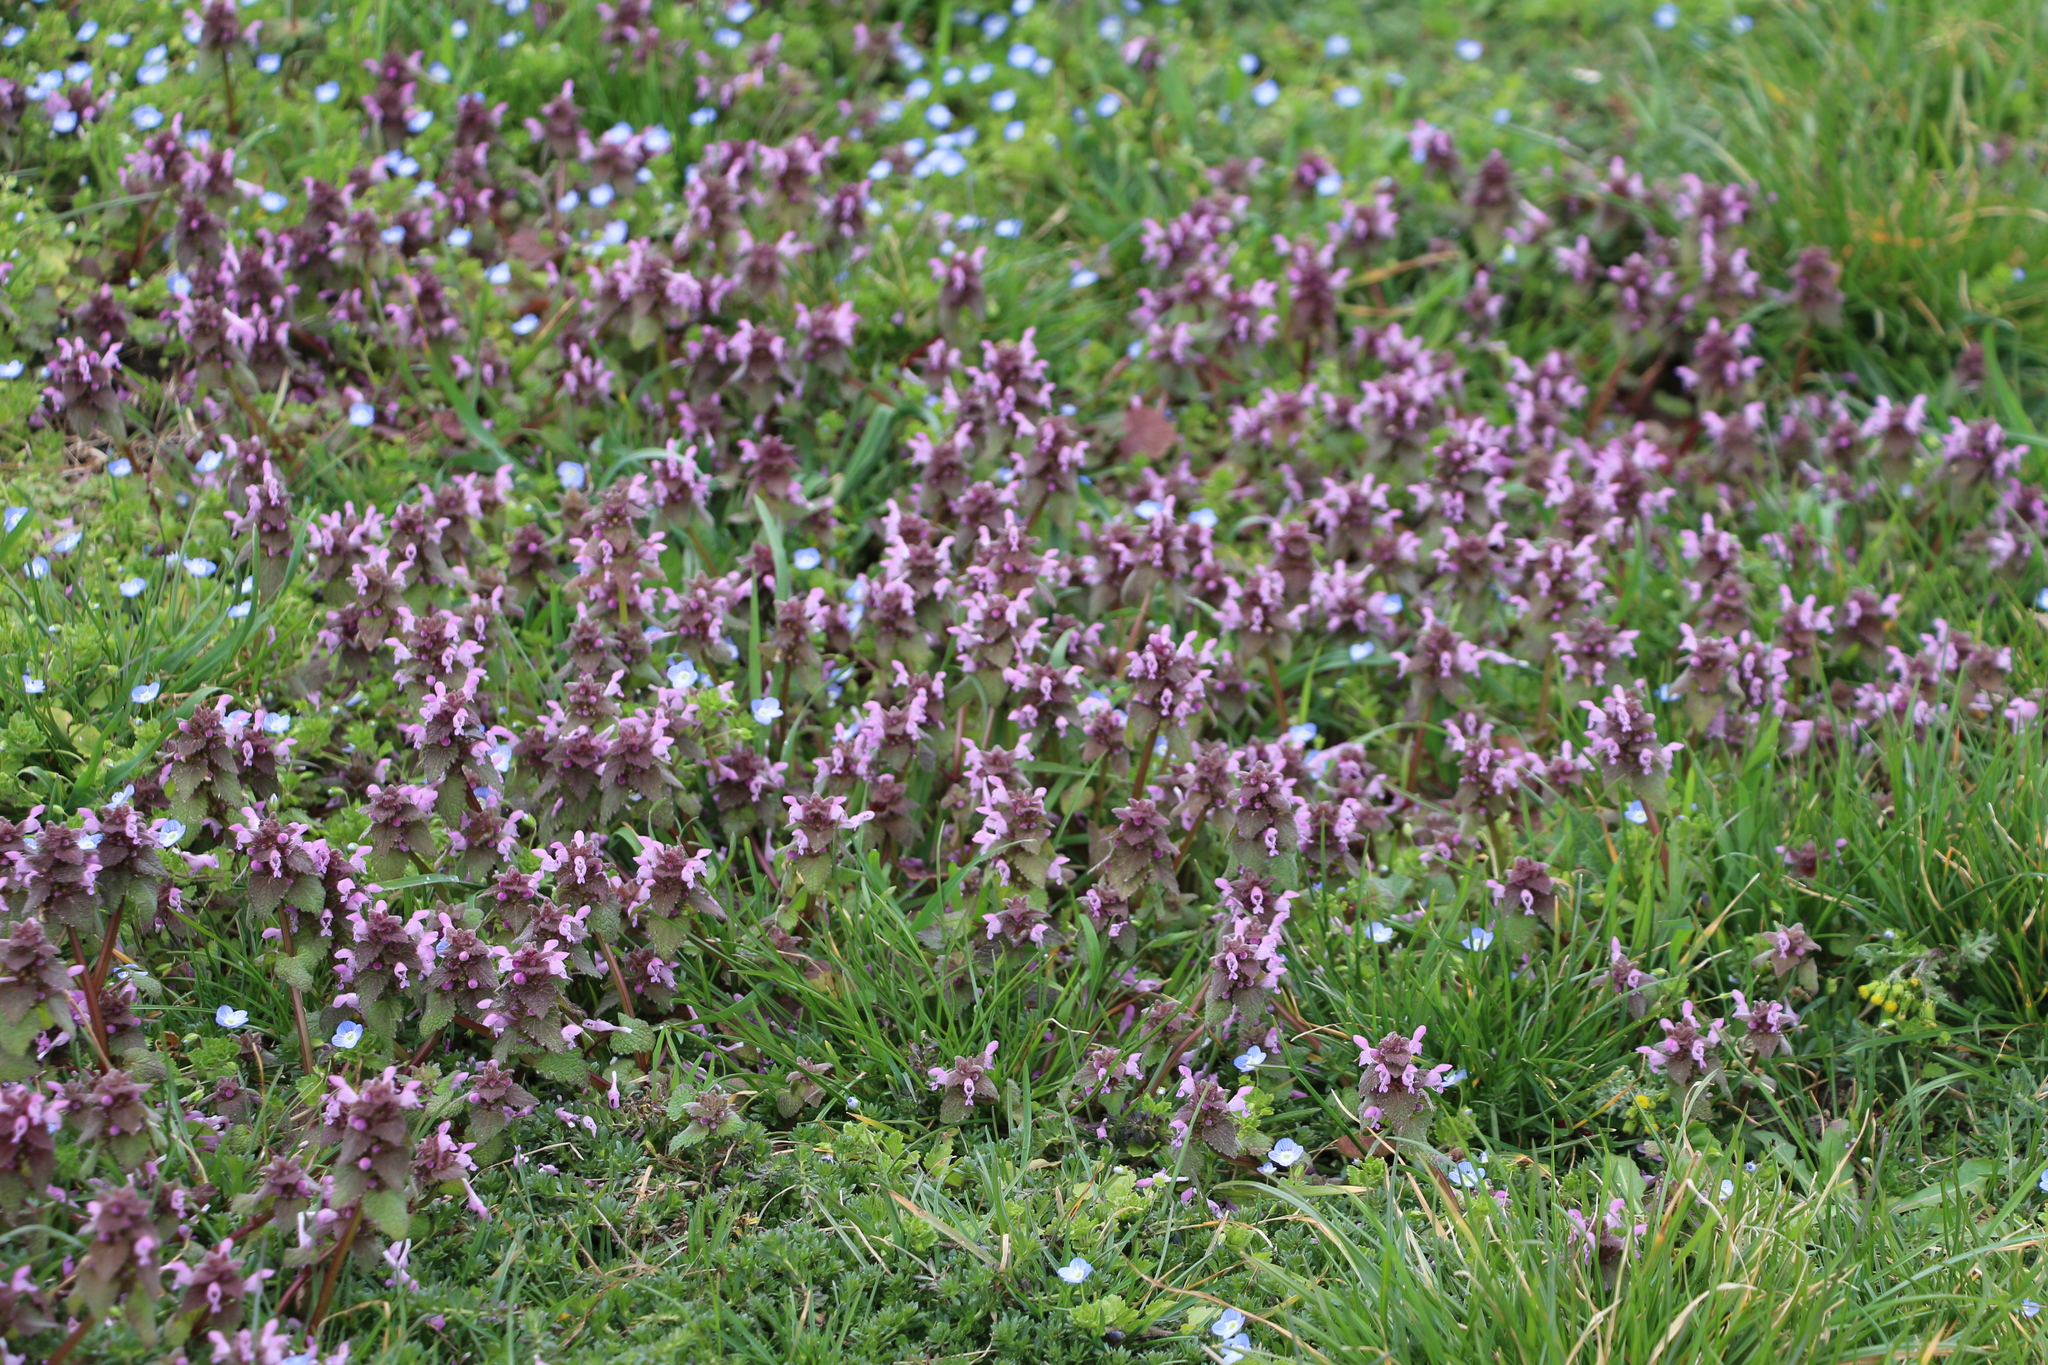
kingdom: Plantae
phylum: Tracheophyta
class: Magnoliopsida
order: Lamiales
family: Lamiaceae
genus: Lamium
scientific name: Lamium purpureum
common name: Red dead-nettle
